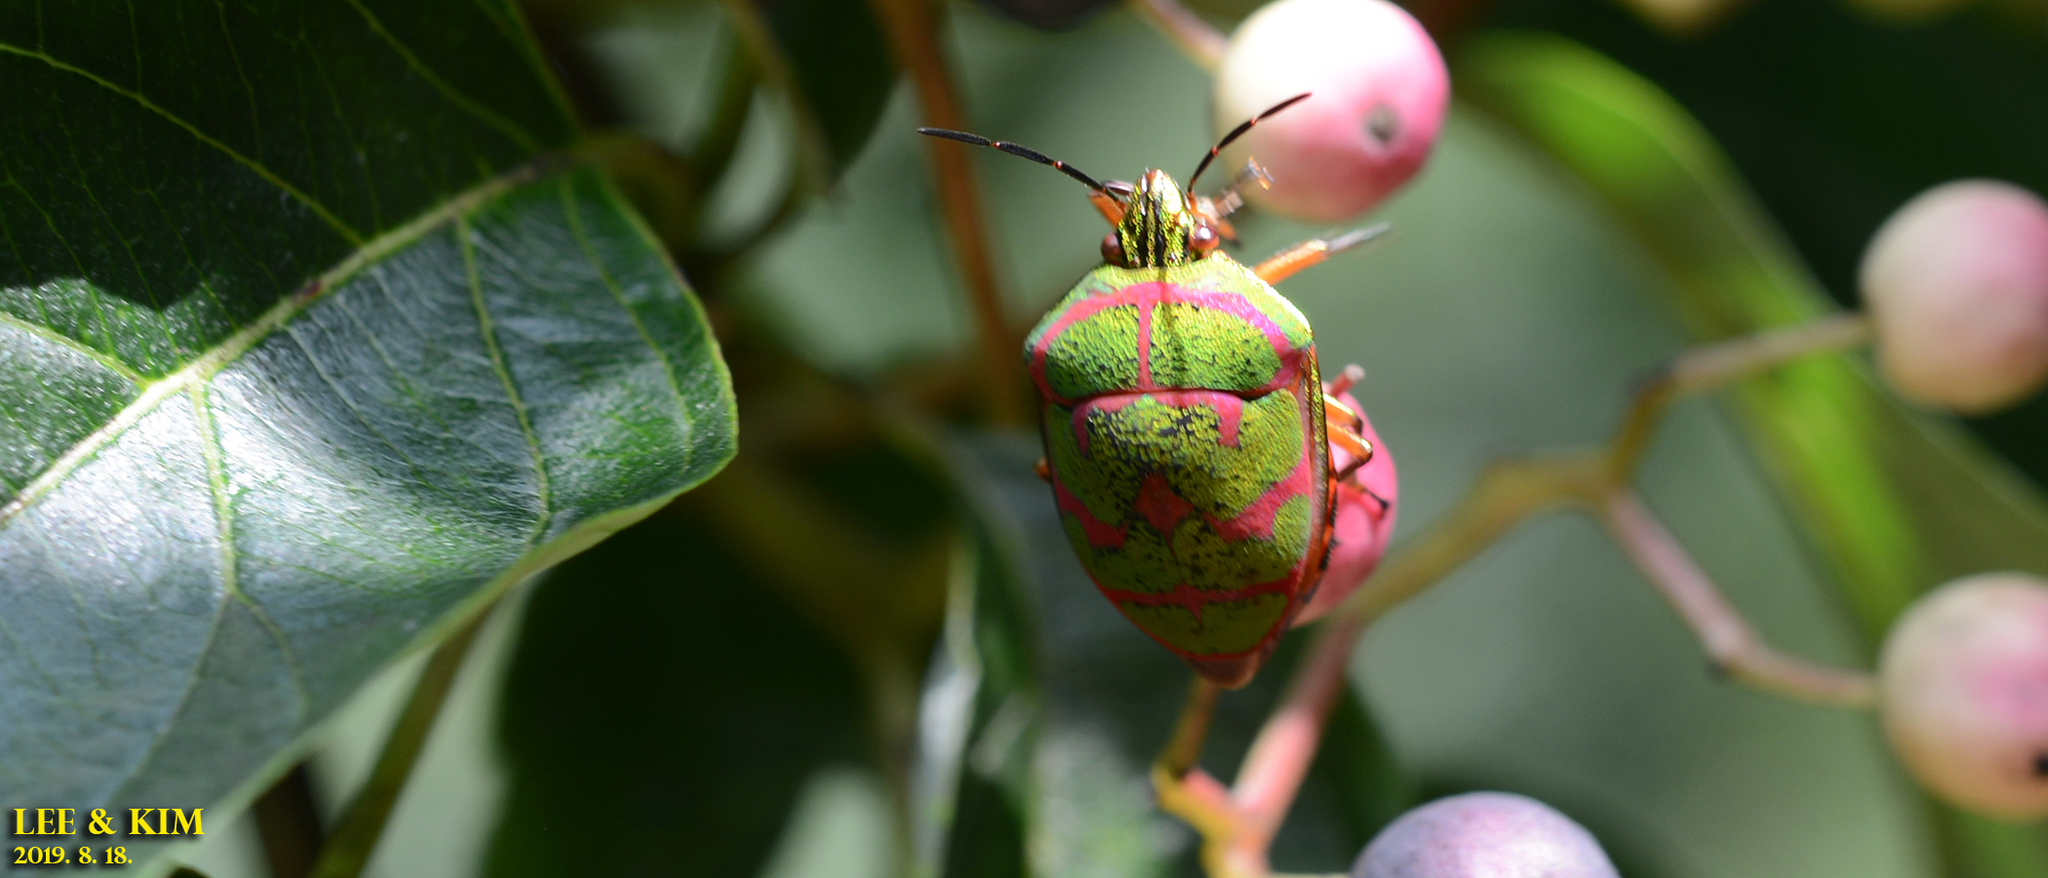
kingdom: Animalia
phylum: Arthropoda
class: Insecta
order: Hemiptera
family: Scutelleridae
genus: Poecilocoris
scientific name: Poecilocoris lewisi
